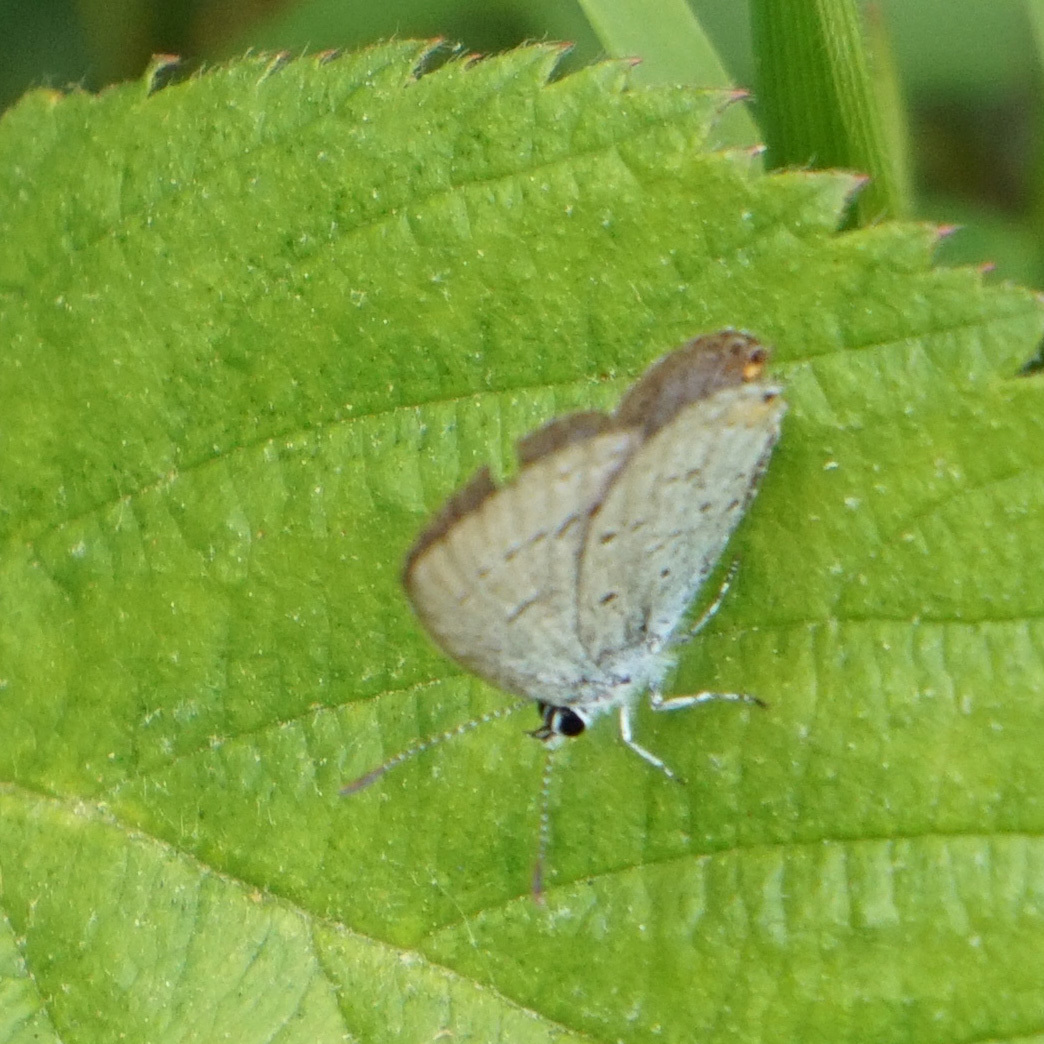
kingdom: Animalia
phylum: Arthropoda
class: Insecta
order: Lepidoptera
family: Lycaenidae
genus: Elkalyce
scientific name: Elkalyce comyntas
